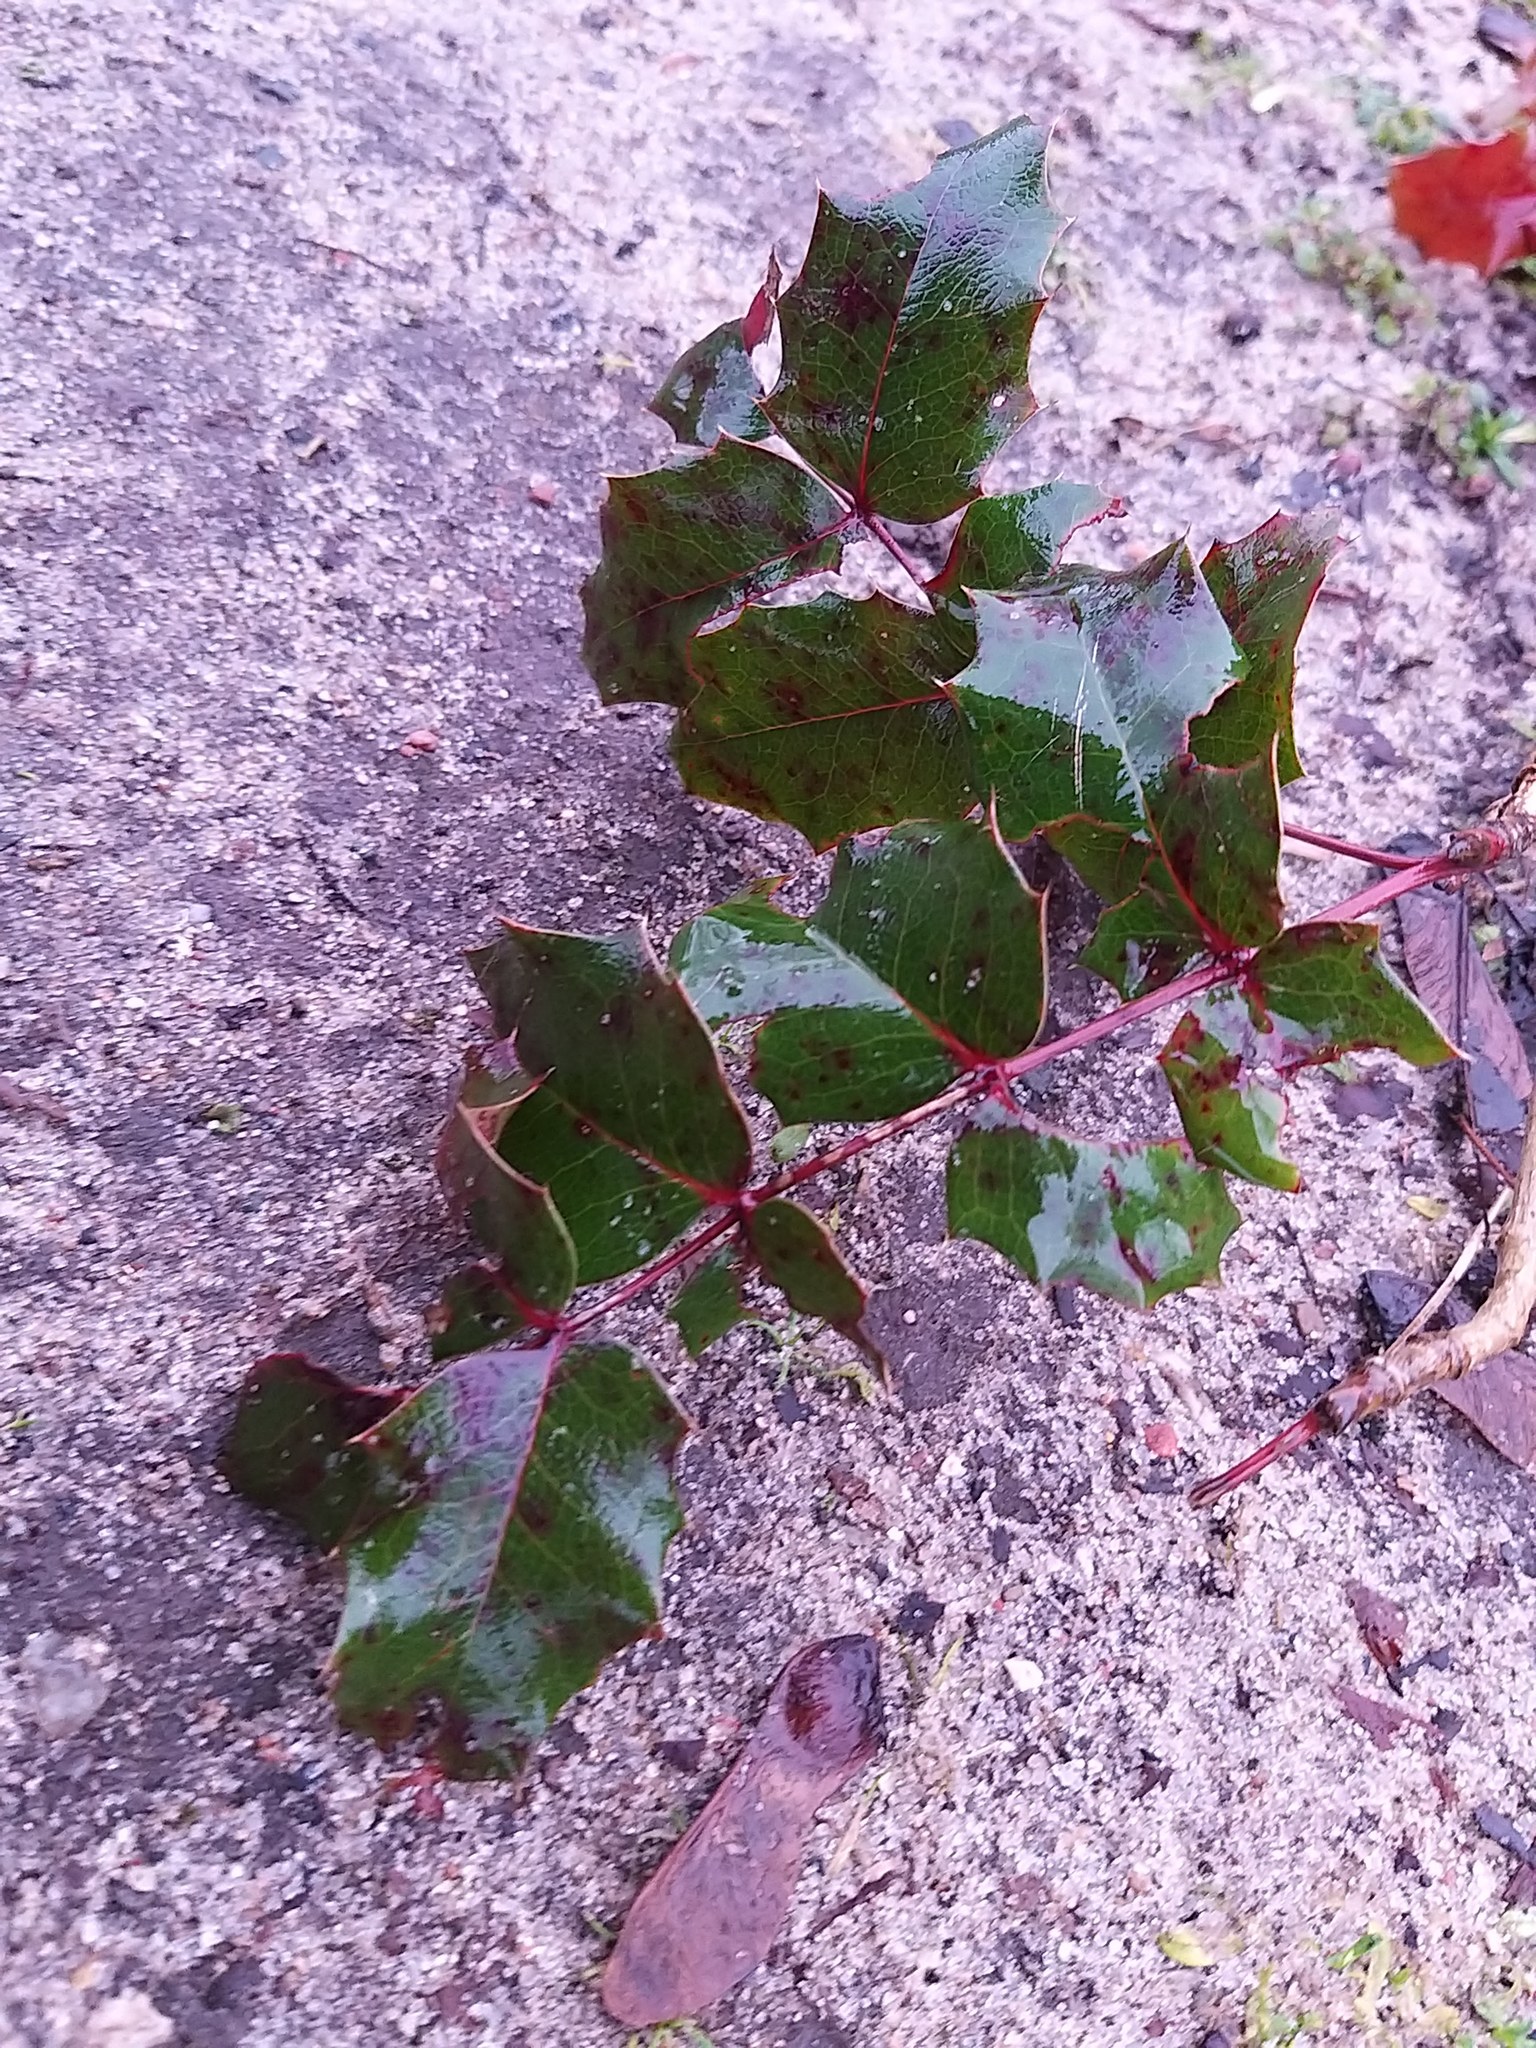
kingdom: Plantae
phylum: Tracheophyta
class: Magnoliopsida
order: Ranunculales
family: Berberidaceae
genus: Mahonia
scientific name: Mahonia aquifolium
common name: Oregon-grape
